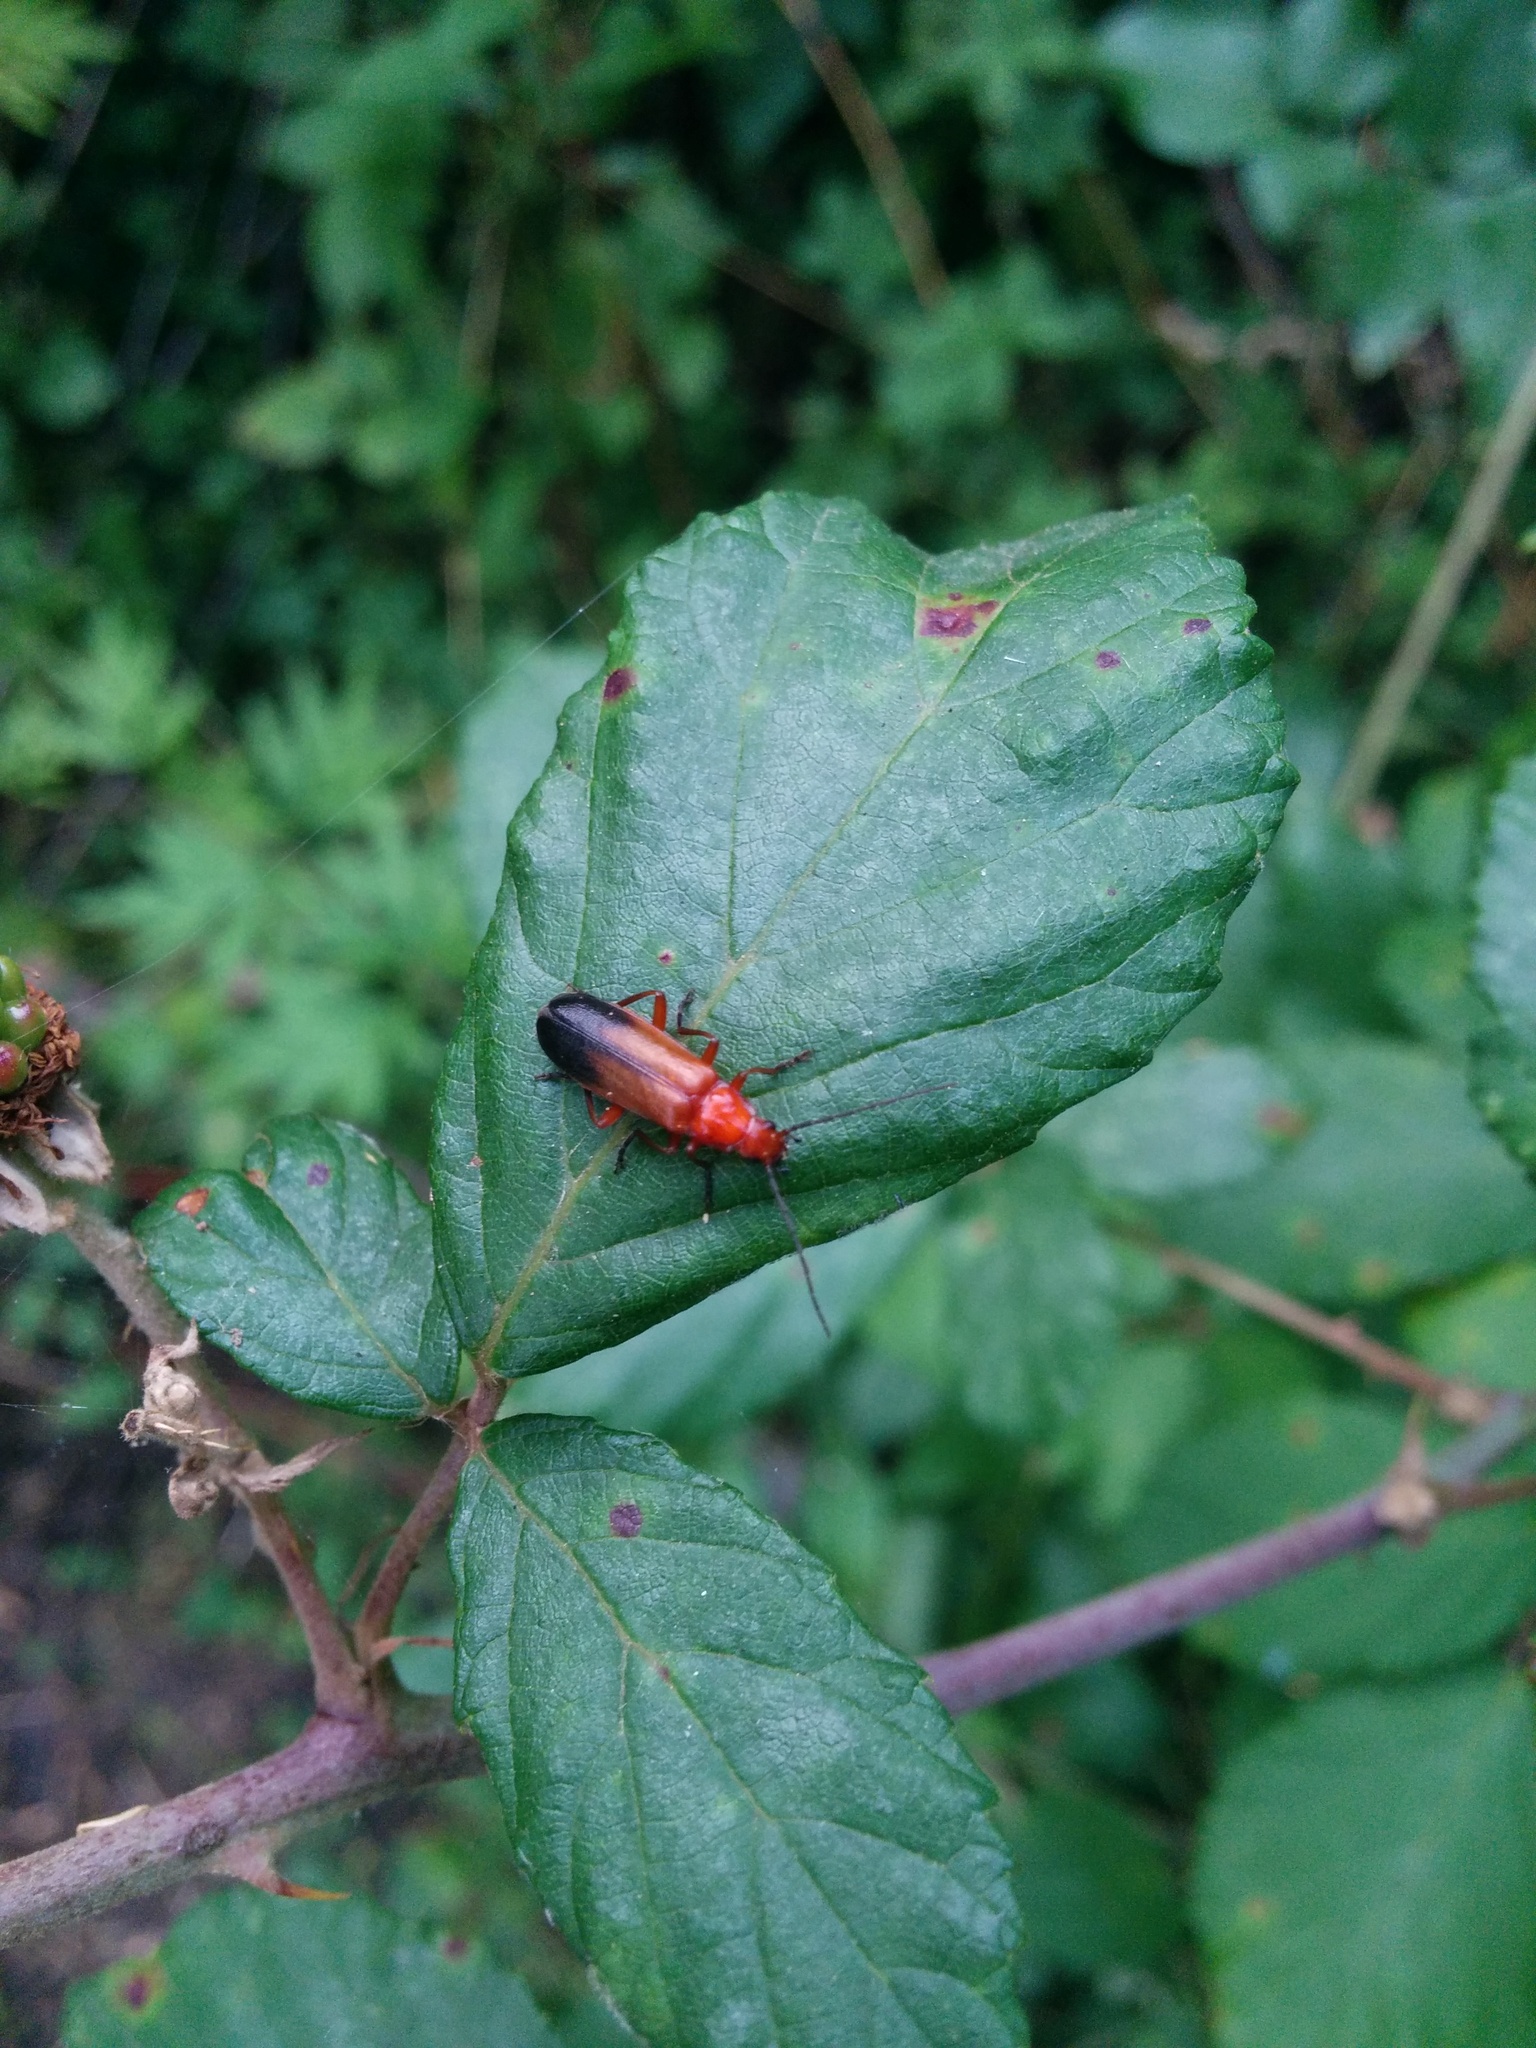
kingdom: Animalia
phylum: Arthropoda
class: Insecta
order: Coleoptera
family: Cantharidae
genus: Rhagonycha
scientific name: Rhagonycha fulva
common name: Common red soldier beetle
